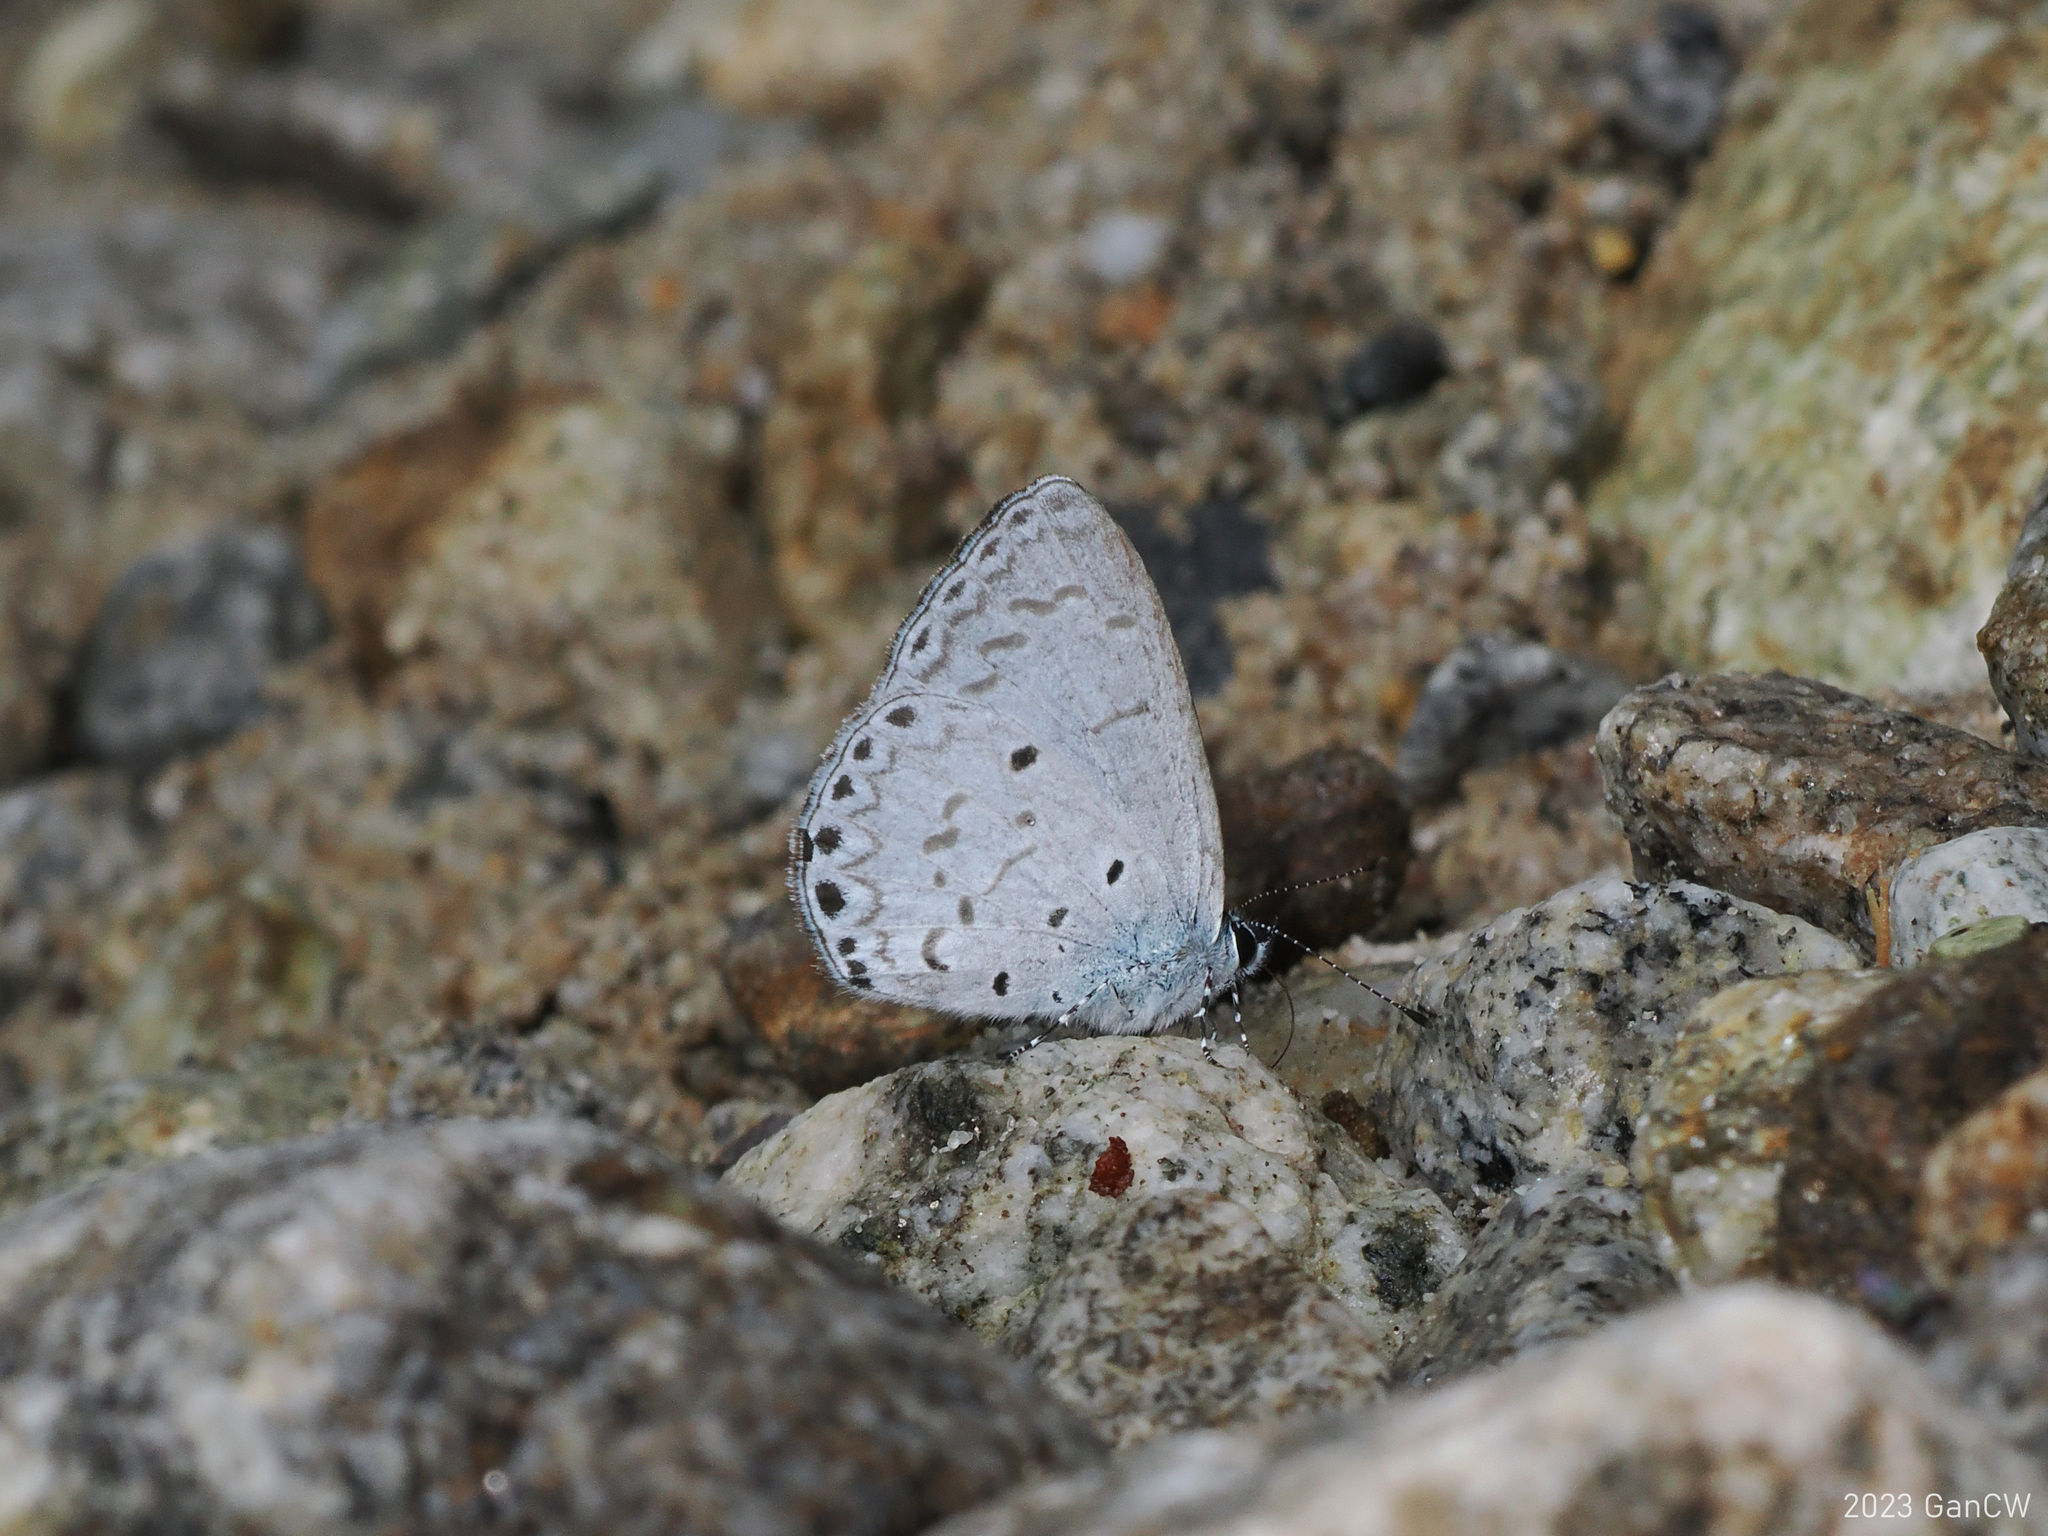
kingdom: Animalia
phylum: Arthropoda
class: Insecta
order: Lepidoptera
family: Lycaenidae
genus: Udara
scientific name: Udara
